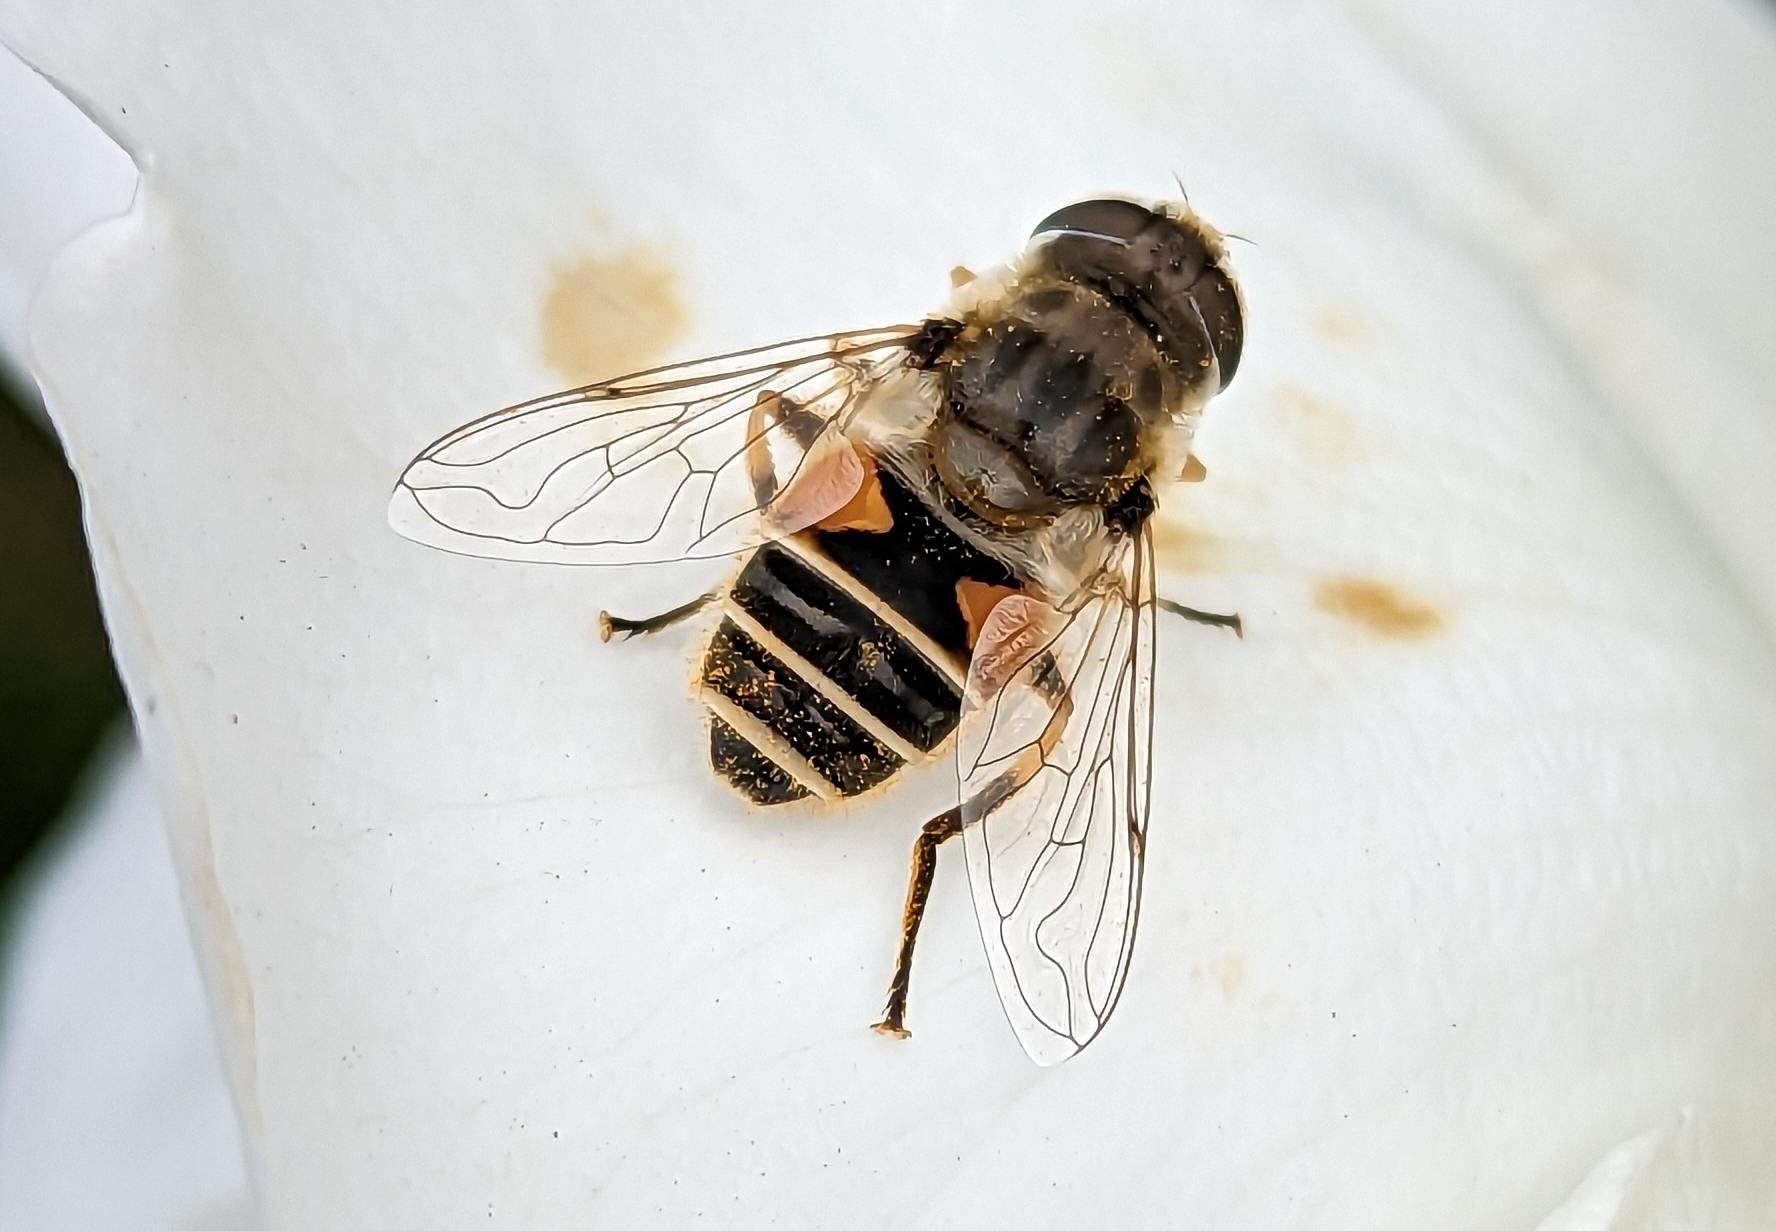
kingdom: Animalia
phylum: Arthropoda
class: Insecta
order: Diptera
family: Syrphidae
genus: Eristalis
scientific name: Eristalis arbustorum
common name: Hover fly
